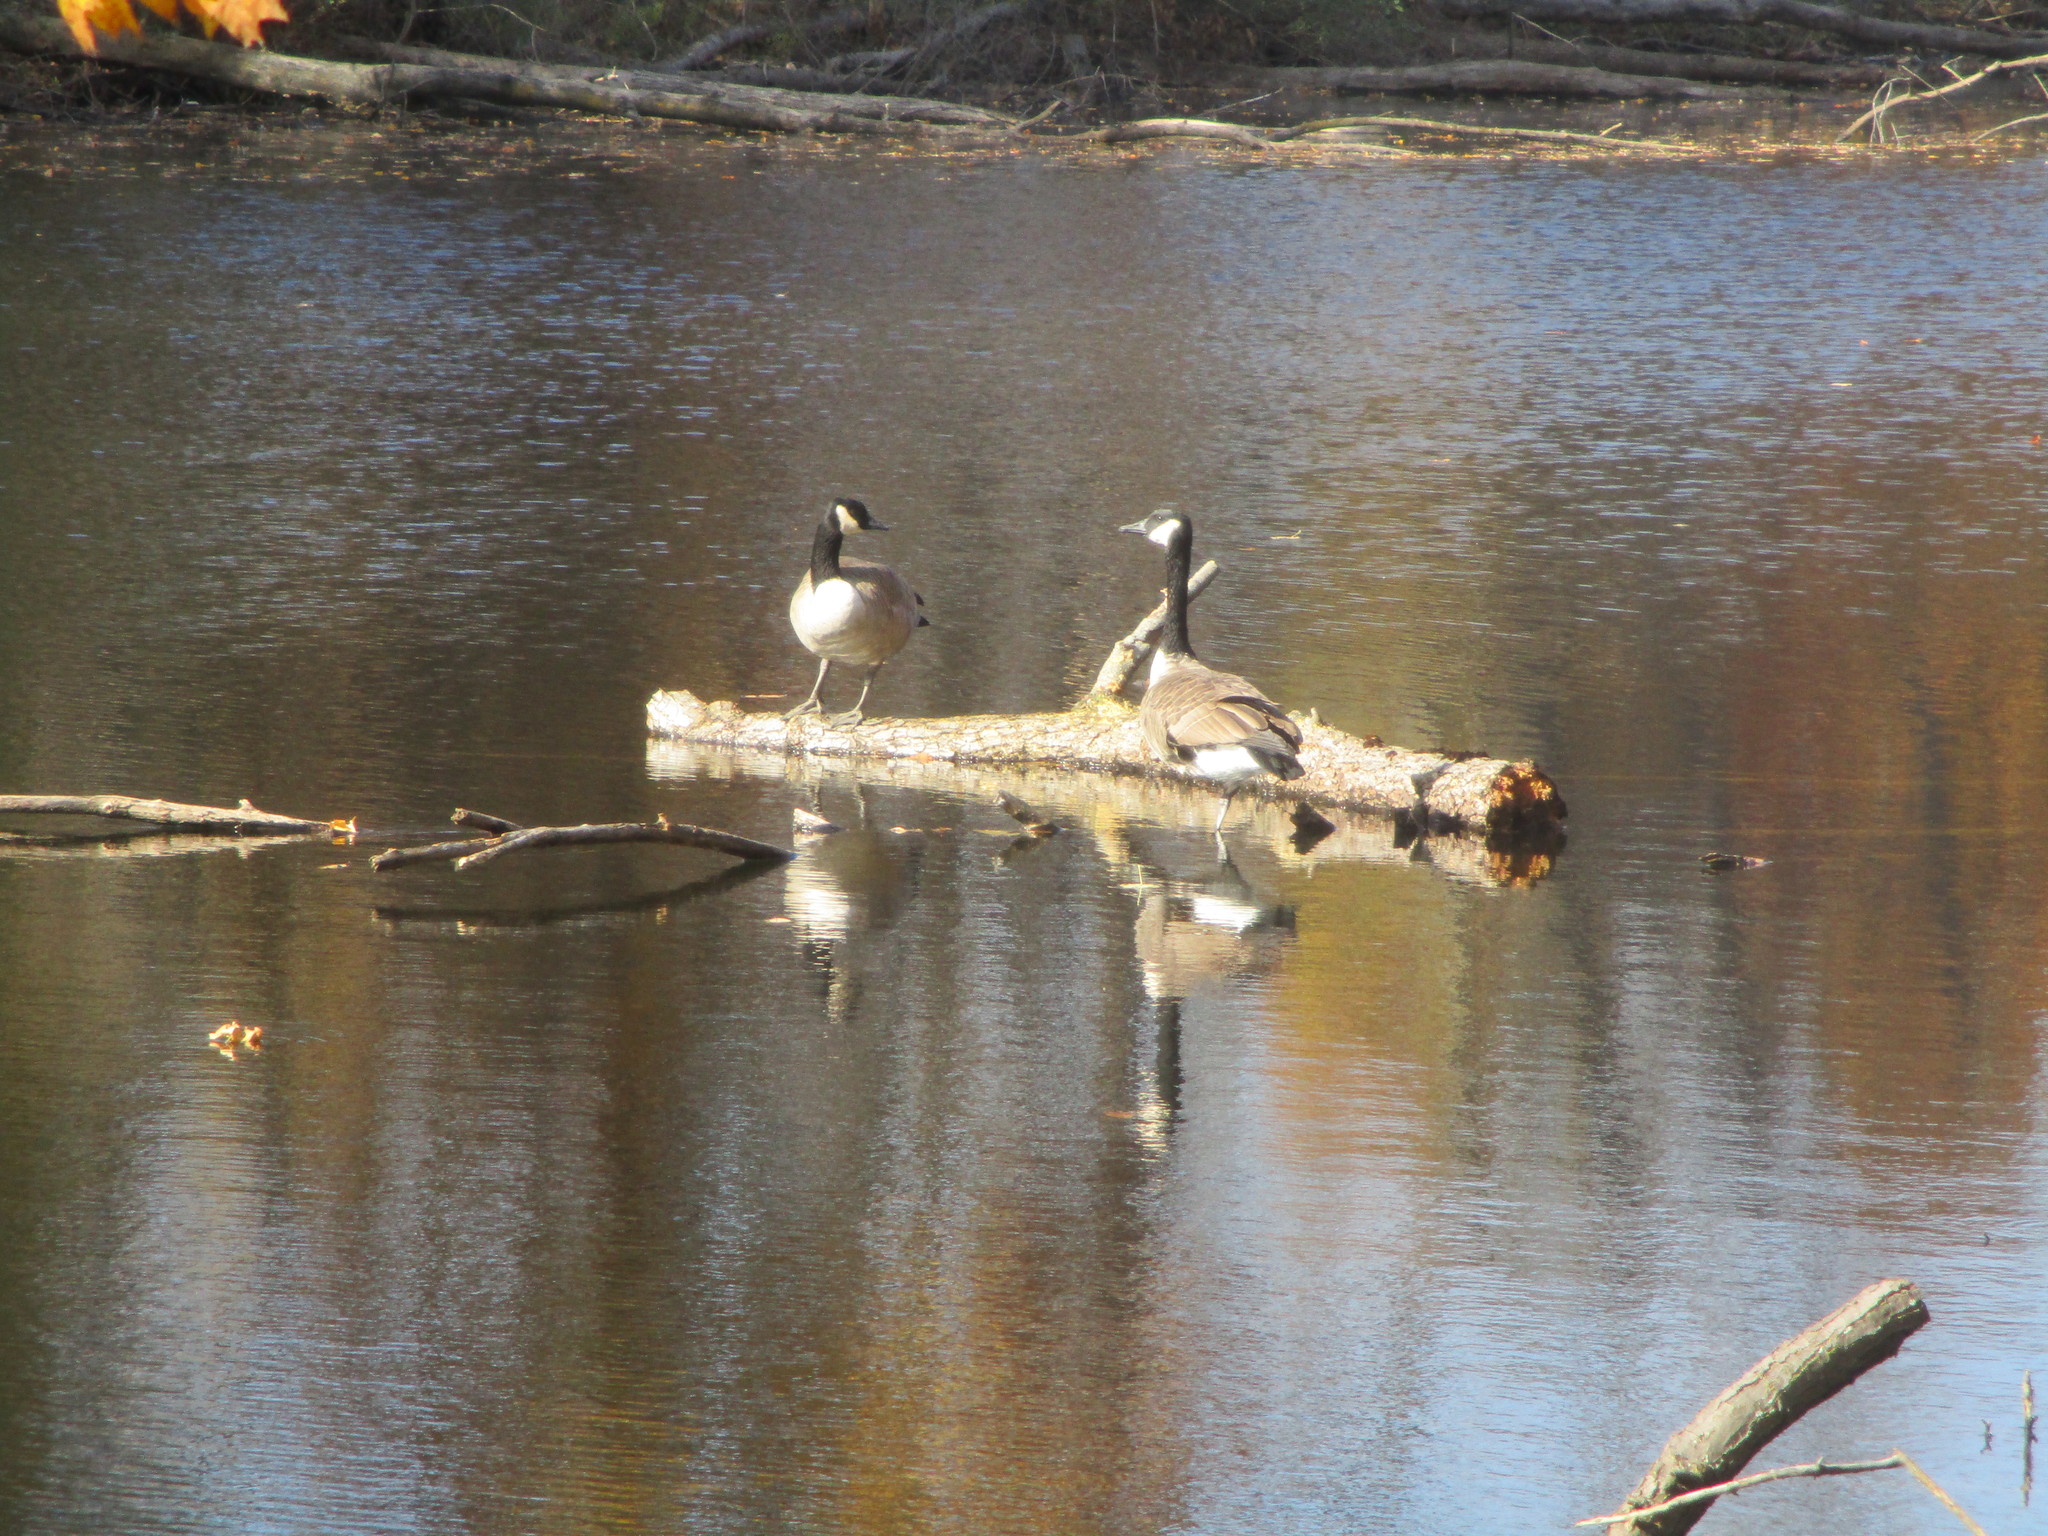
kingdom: Animalia
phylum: Chordata
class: Aves
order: Anseriformes
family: Anatidae
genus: Branta
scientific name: Branta canadensis
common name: Canada goose
